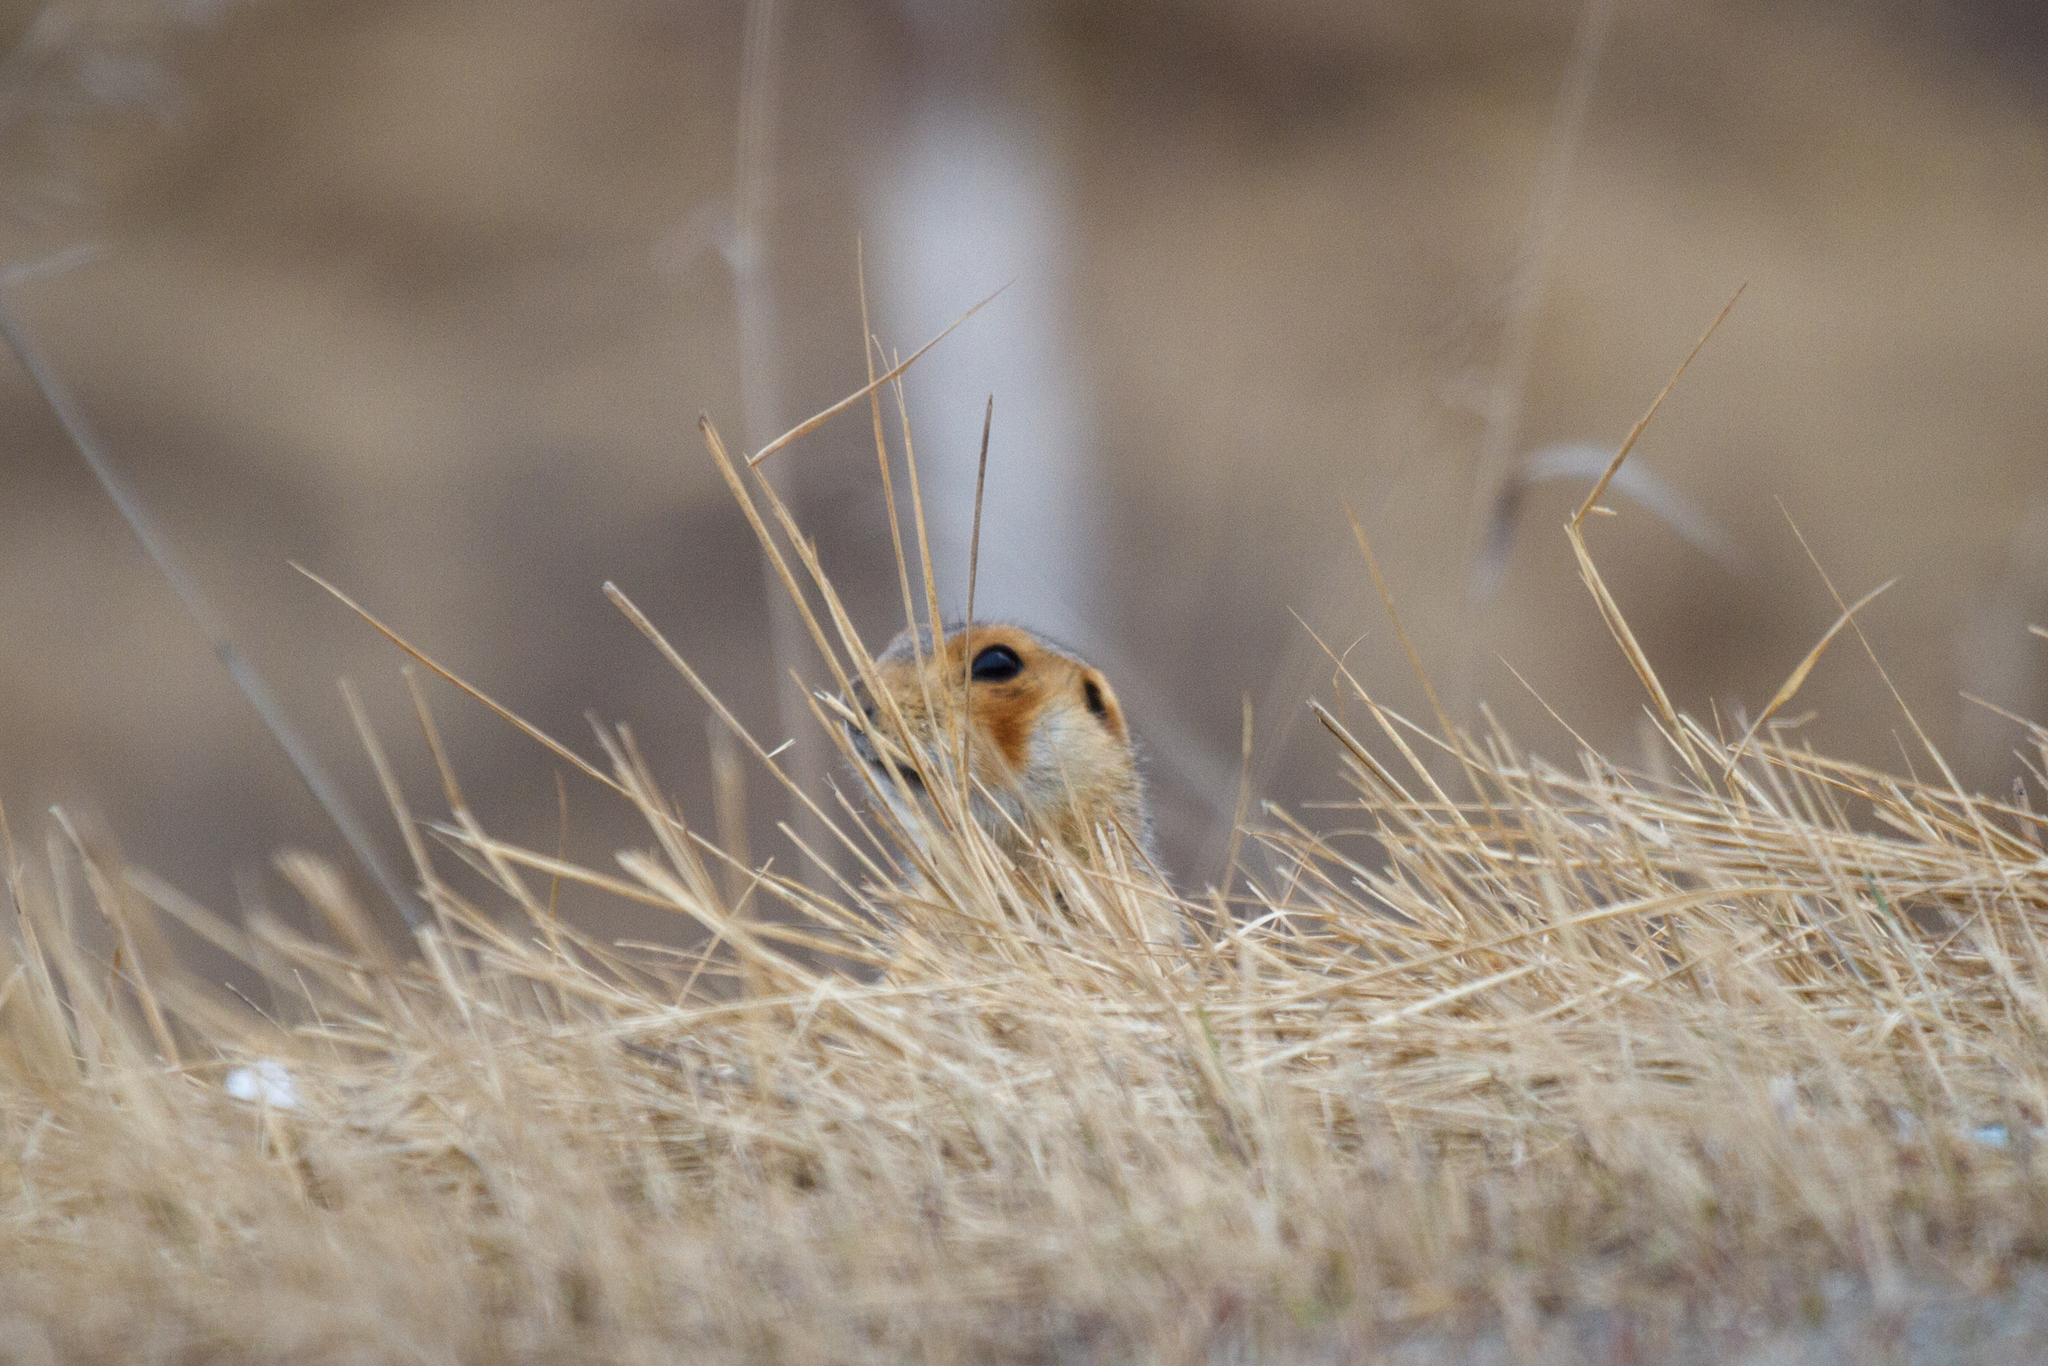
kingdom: Animalia
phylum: Chordata
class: Mammalia
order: Rodentia
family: Sciuridae
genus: Spermophilus
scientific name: Spermophilus major
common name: Russet ground squirrel
